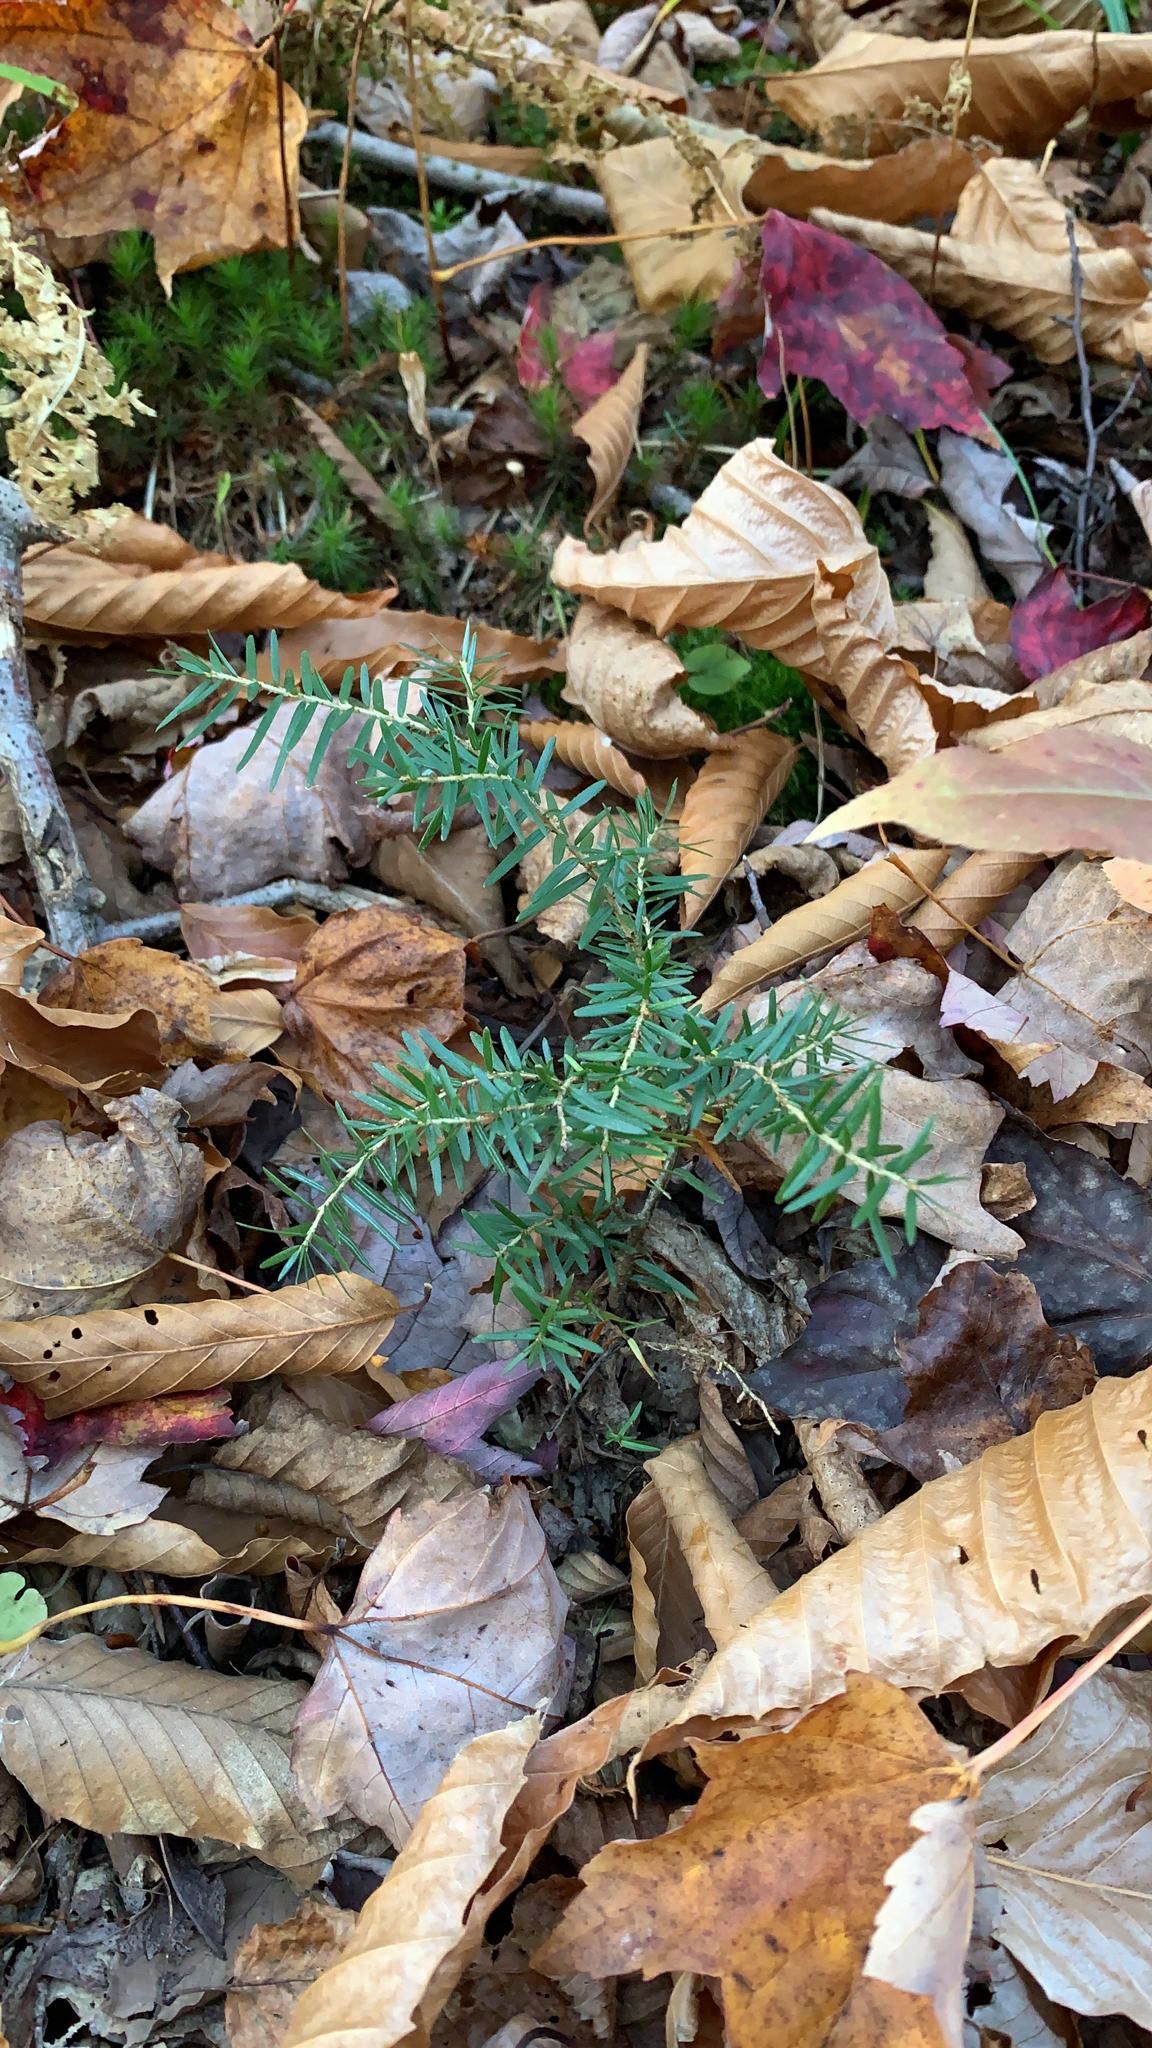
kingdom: Plantae
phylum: Tracheophyta
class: Pinopsida
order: Pinales
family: Pinaceae
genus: Tsuga
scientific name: Tsuga canadensis
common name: Eastern hemlock
